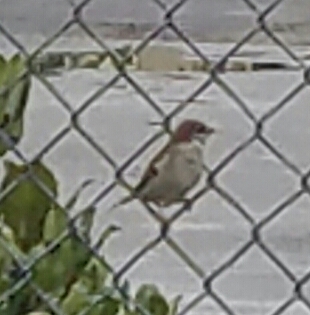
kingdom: Animalia
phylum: Chordata
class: Aves
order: Passeriformes
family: Passeridae
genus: Passer
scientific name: Passer domesticus
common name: House sparrow
